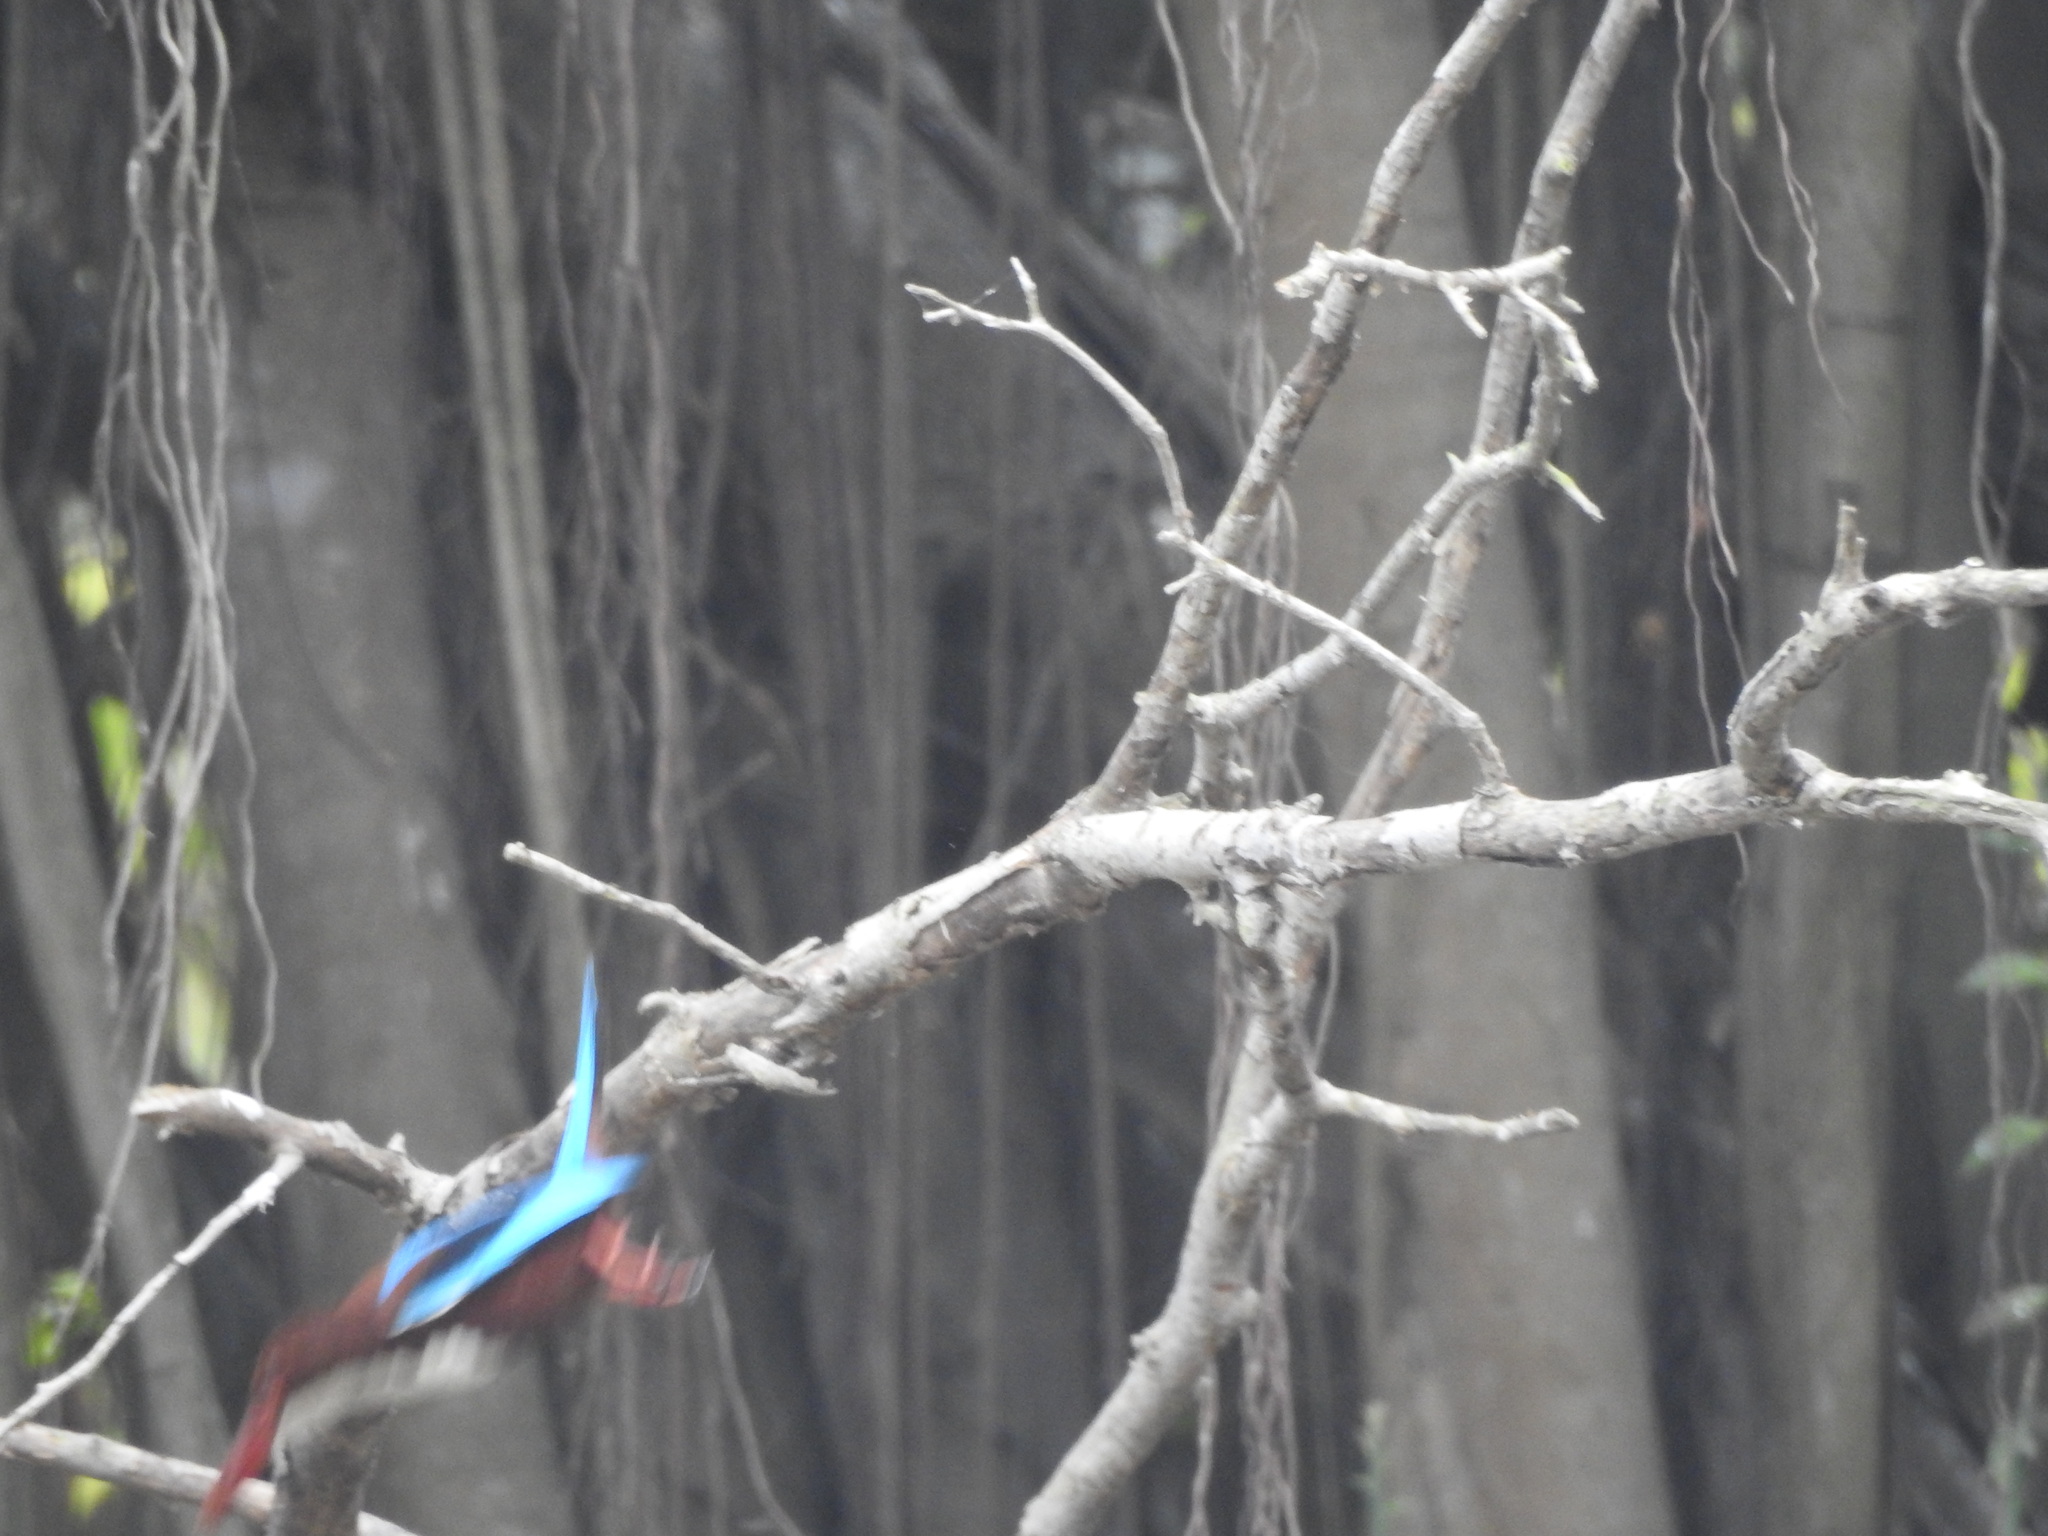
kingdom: Animalia
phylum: Chordata
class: Aves
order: Coraciiformes
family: Alcedinidae
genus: Halcyon
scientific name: Halcyon smyrnensis
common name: White-throated kingfisher
